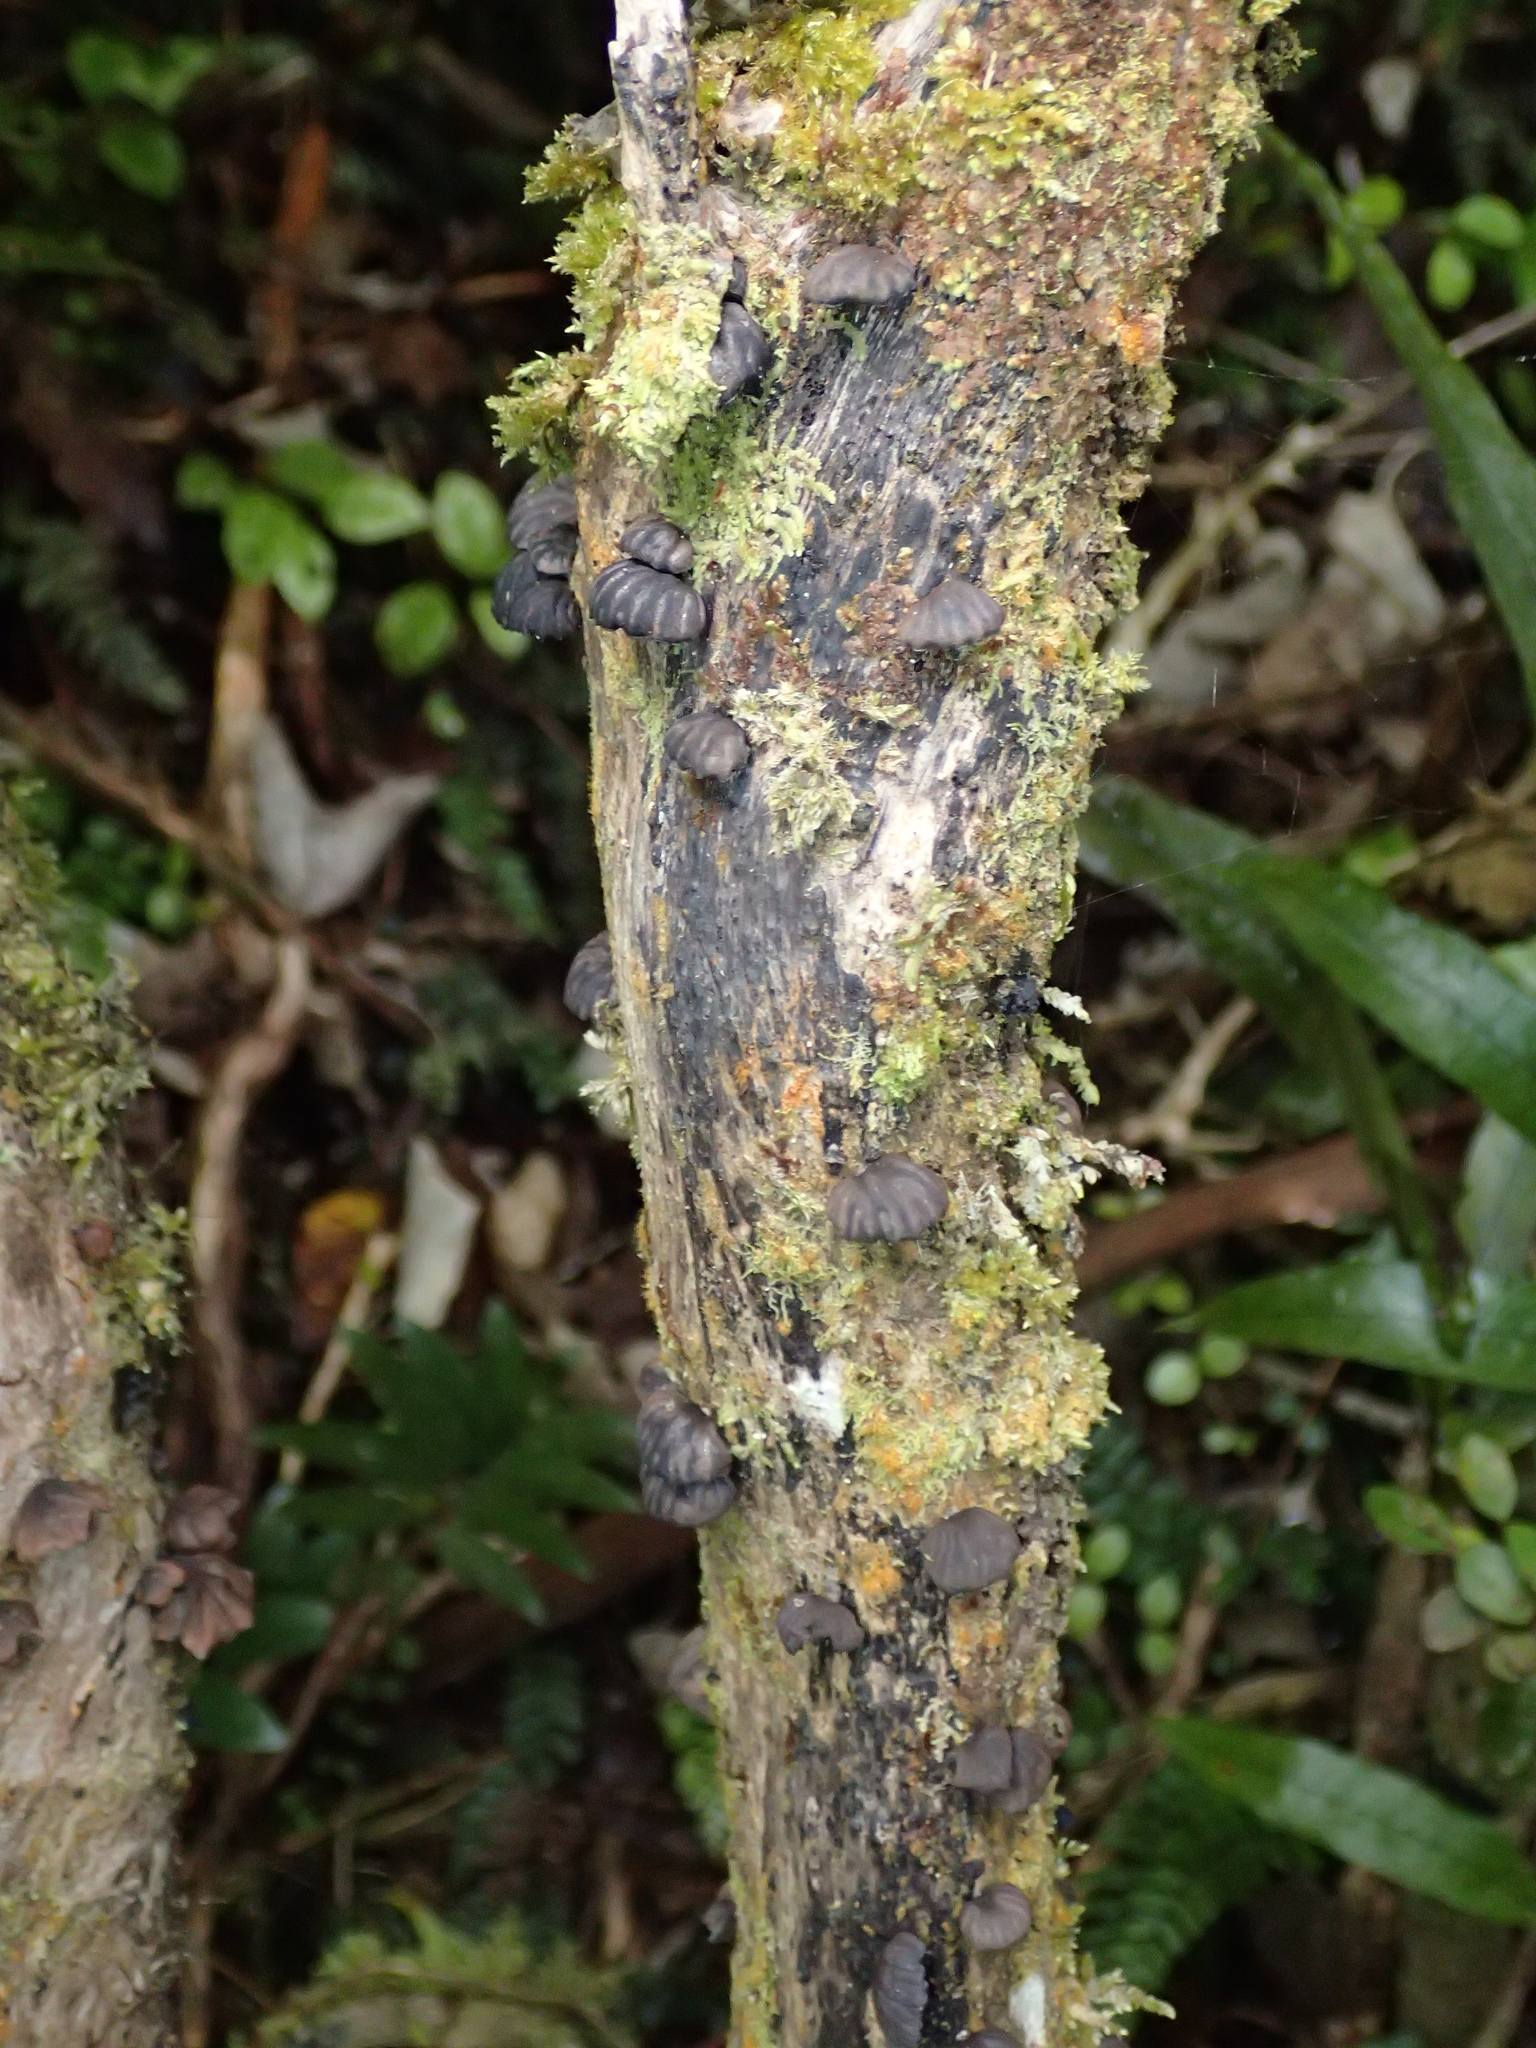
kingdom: Fungi
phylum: Basidiomycota
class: Agaricomycetes
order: Agaricales
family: Omphalotaceae
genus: Anthracophyllum
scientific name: Anthracophyllum archeri
